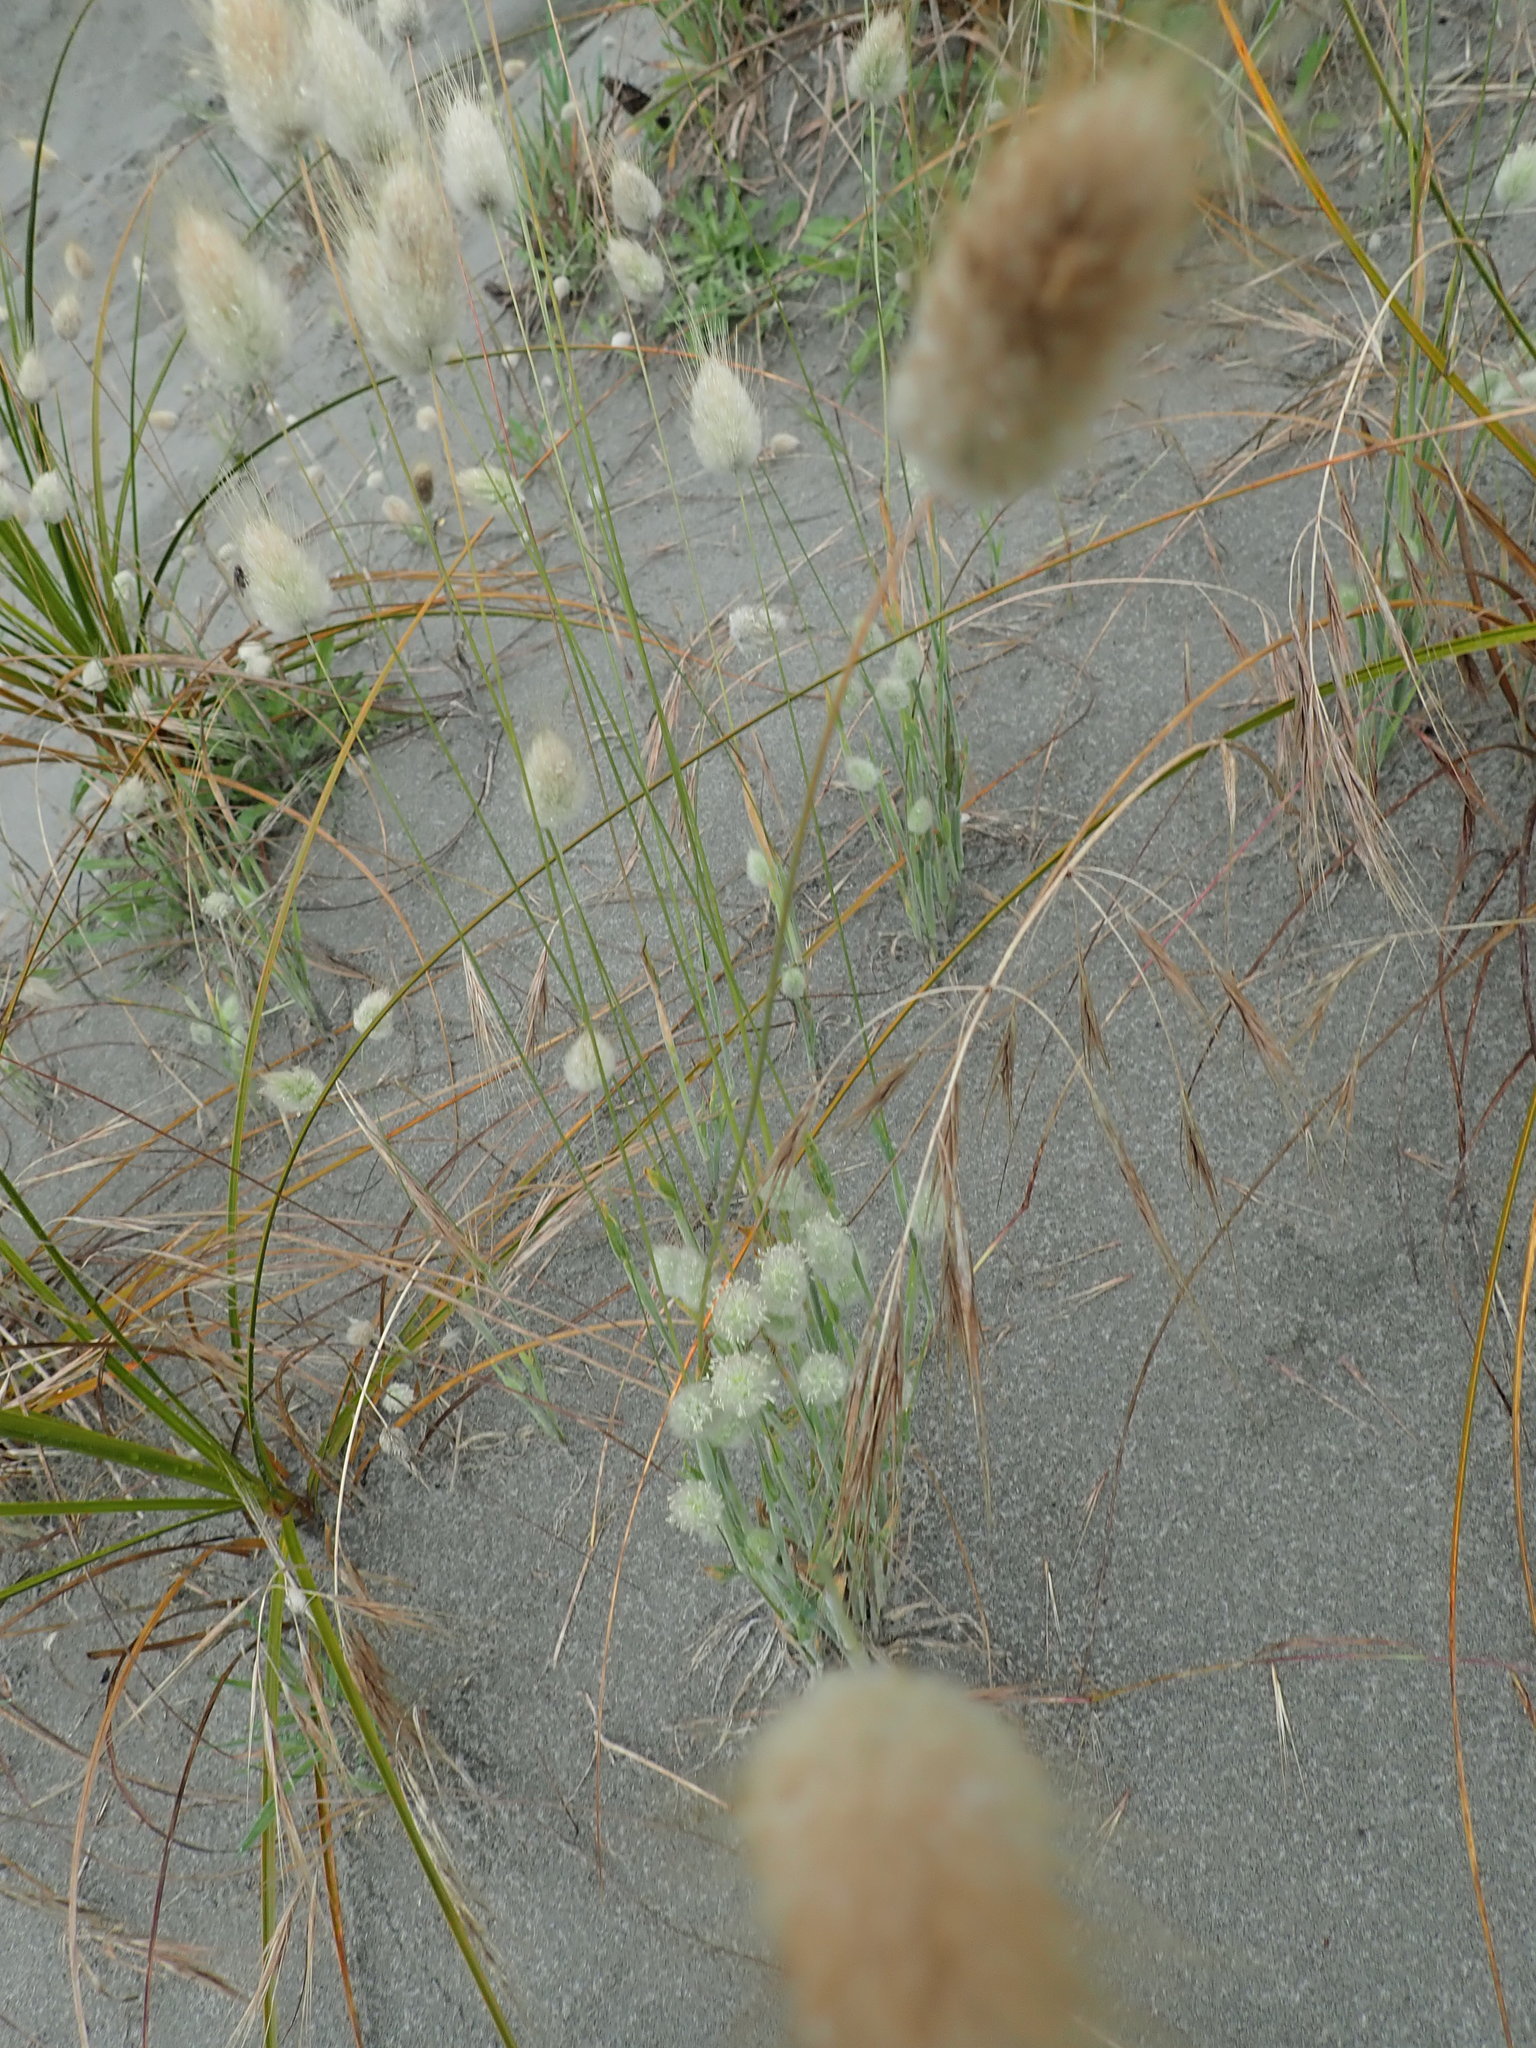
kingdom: Plantae
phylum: Tracheophyta
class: Liliopsida
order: Poales
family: Poaceae
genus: Lagurus
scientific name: Lagurus ovatus
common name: Hare's-tail
